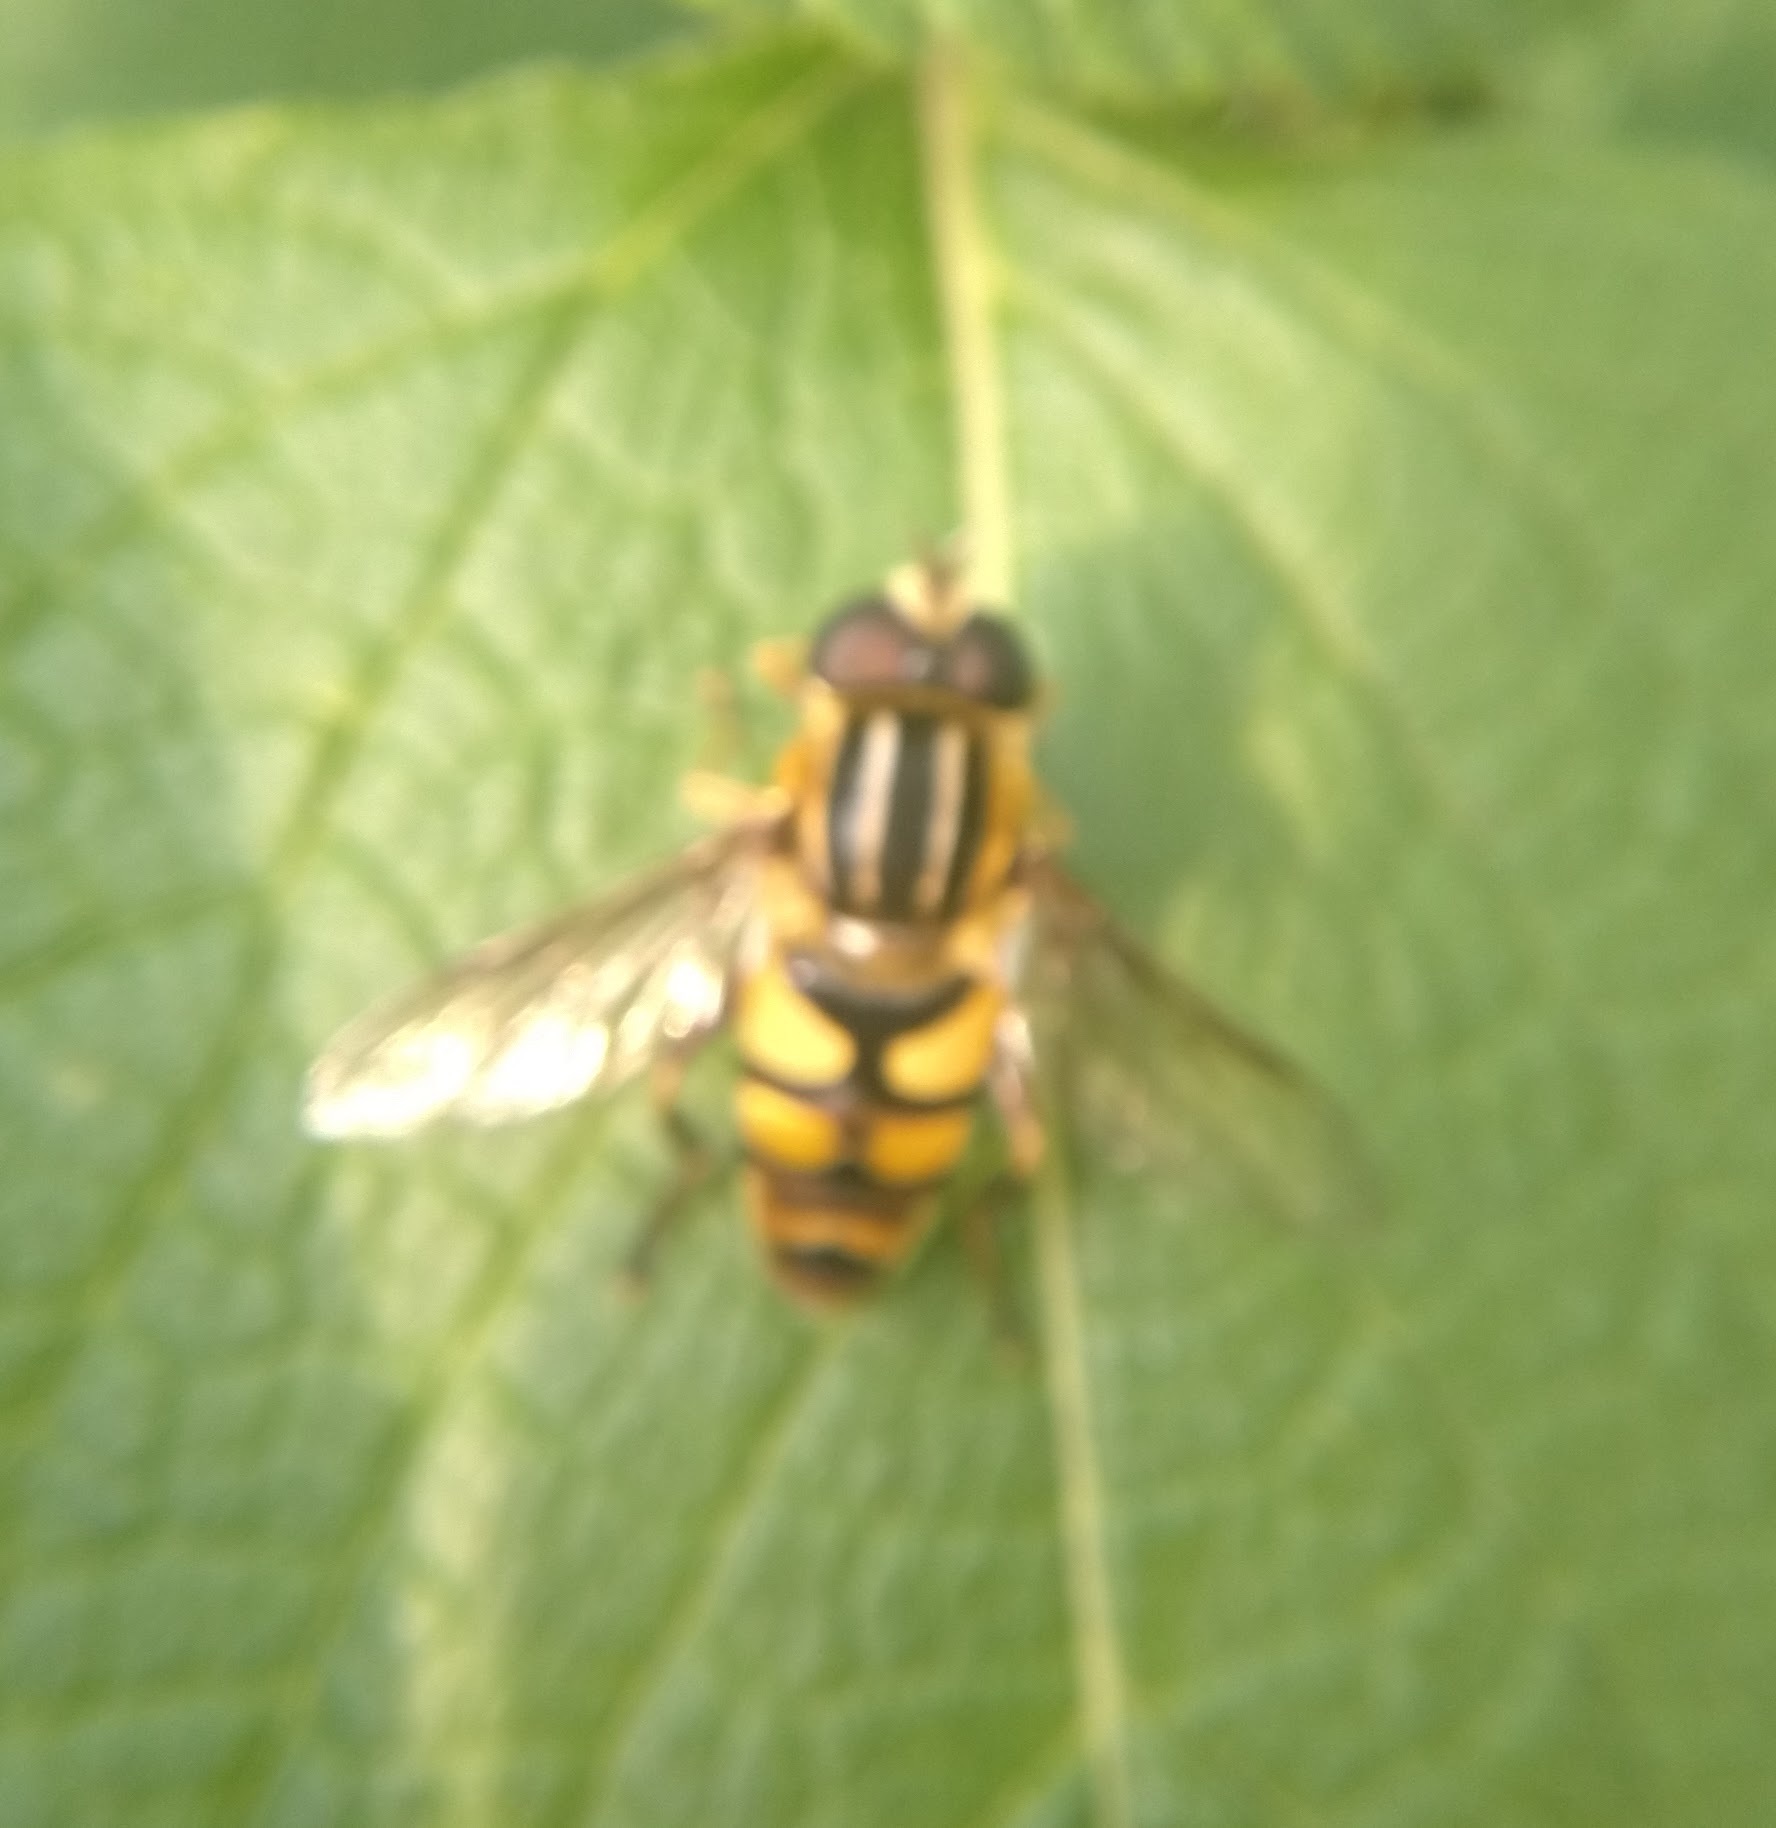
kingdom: Animalia
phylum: Arthropoda
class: Insecta
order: Diptera
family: Syrphidae
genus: Helophilus
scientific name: Helophilus fasciatus
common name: Narrow-headed marsh fly
